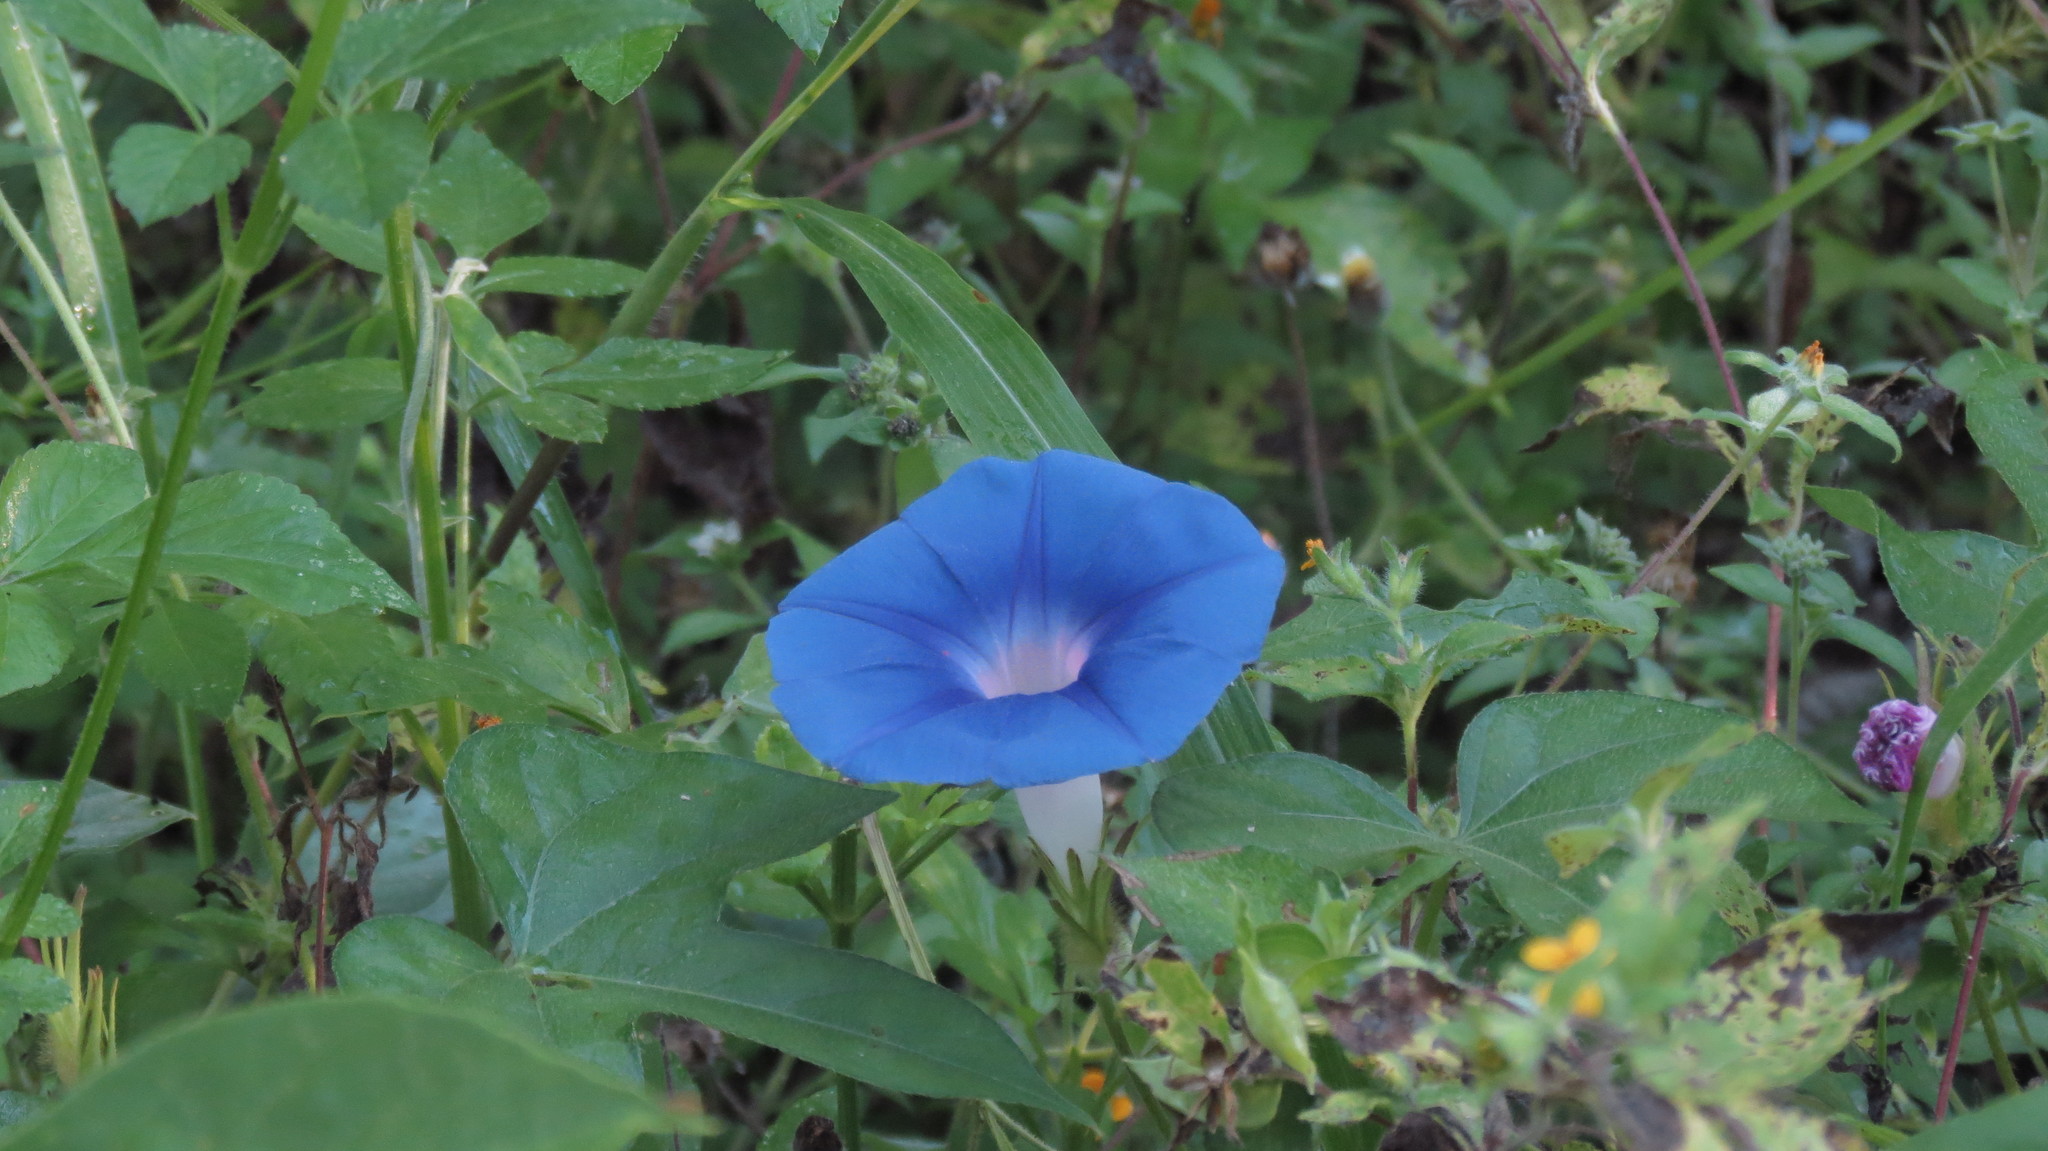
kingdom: Plantae
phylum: Tracheophyta
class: Magnoliopsida
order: Solanales
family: Convolvulaceae
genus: Ipomoea
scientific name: Ipomoea nil
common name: Japanese morning-glory
